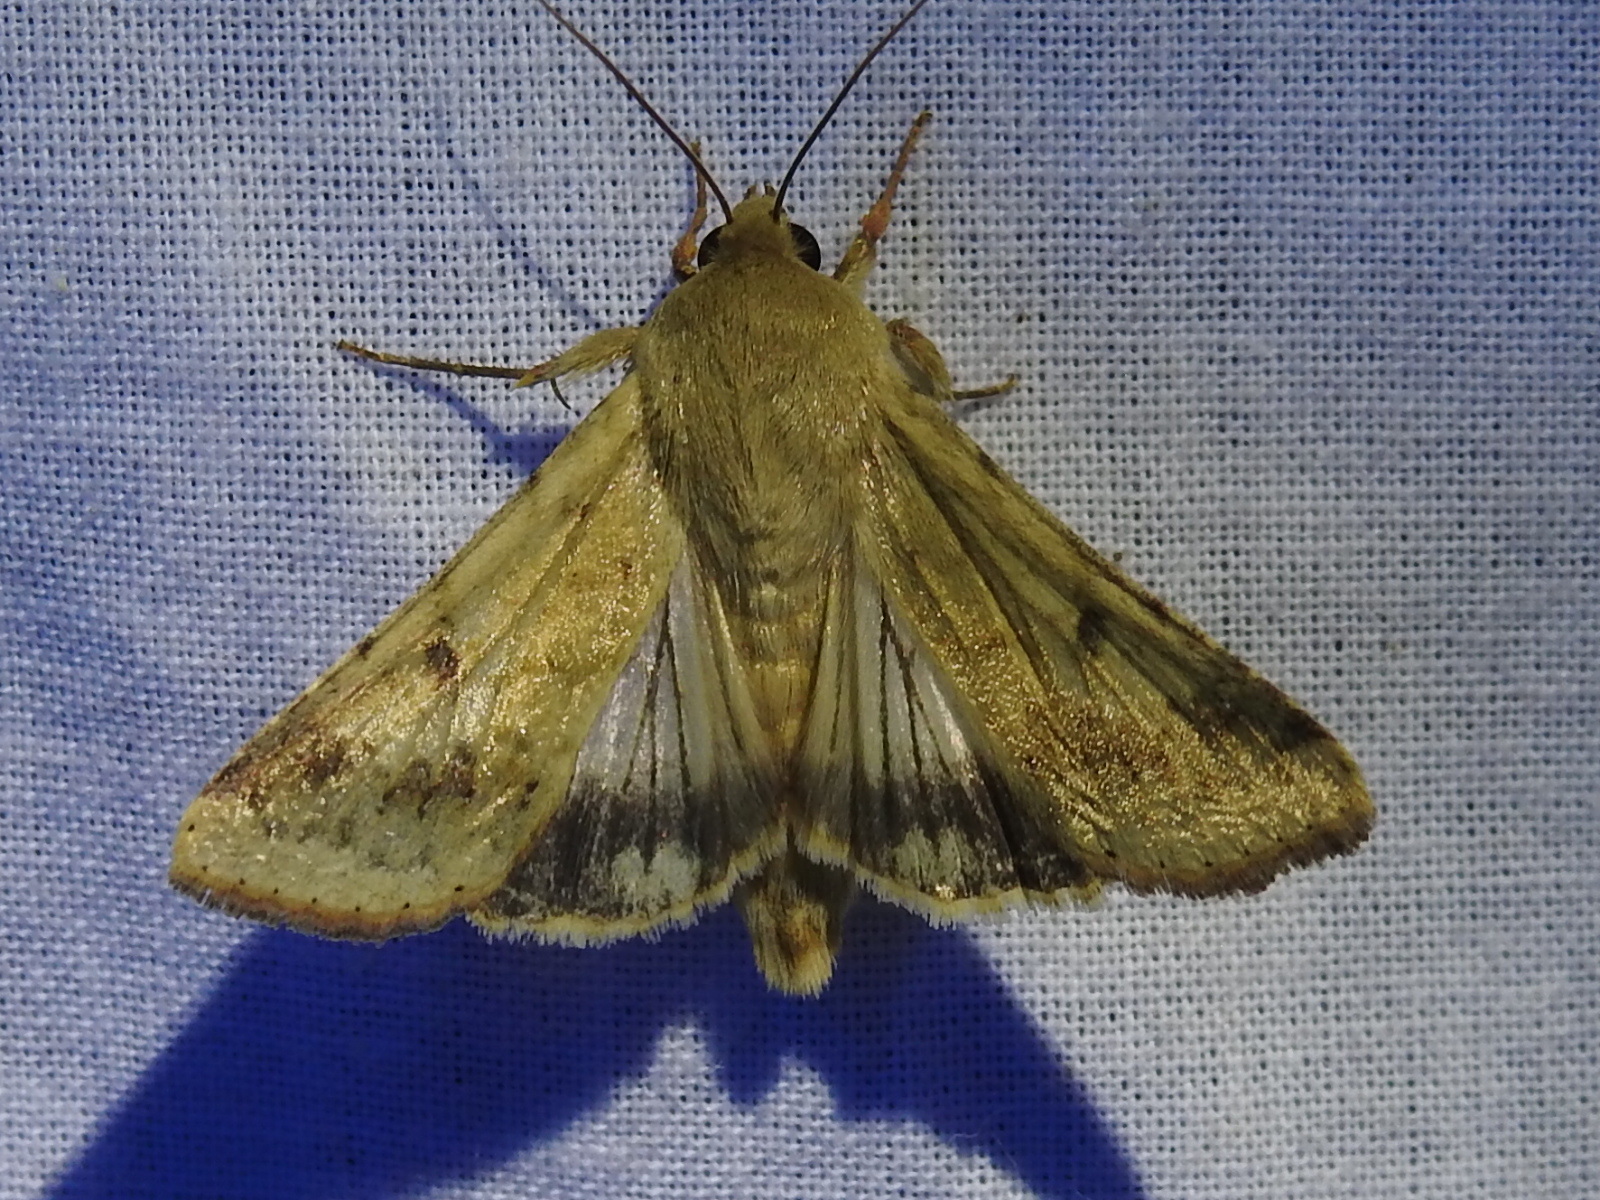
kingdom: Animalia
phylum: Arthropoda
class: Insecta
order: Lepidoptera
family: Noctuidae
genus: Helicoverpa
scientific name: Helicoverpa zea
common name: Bollworm
